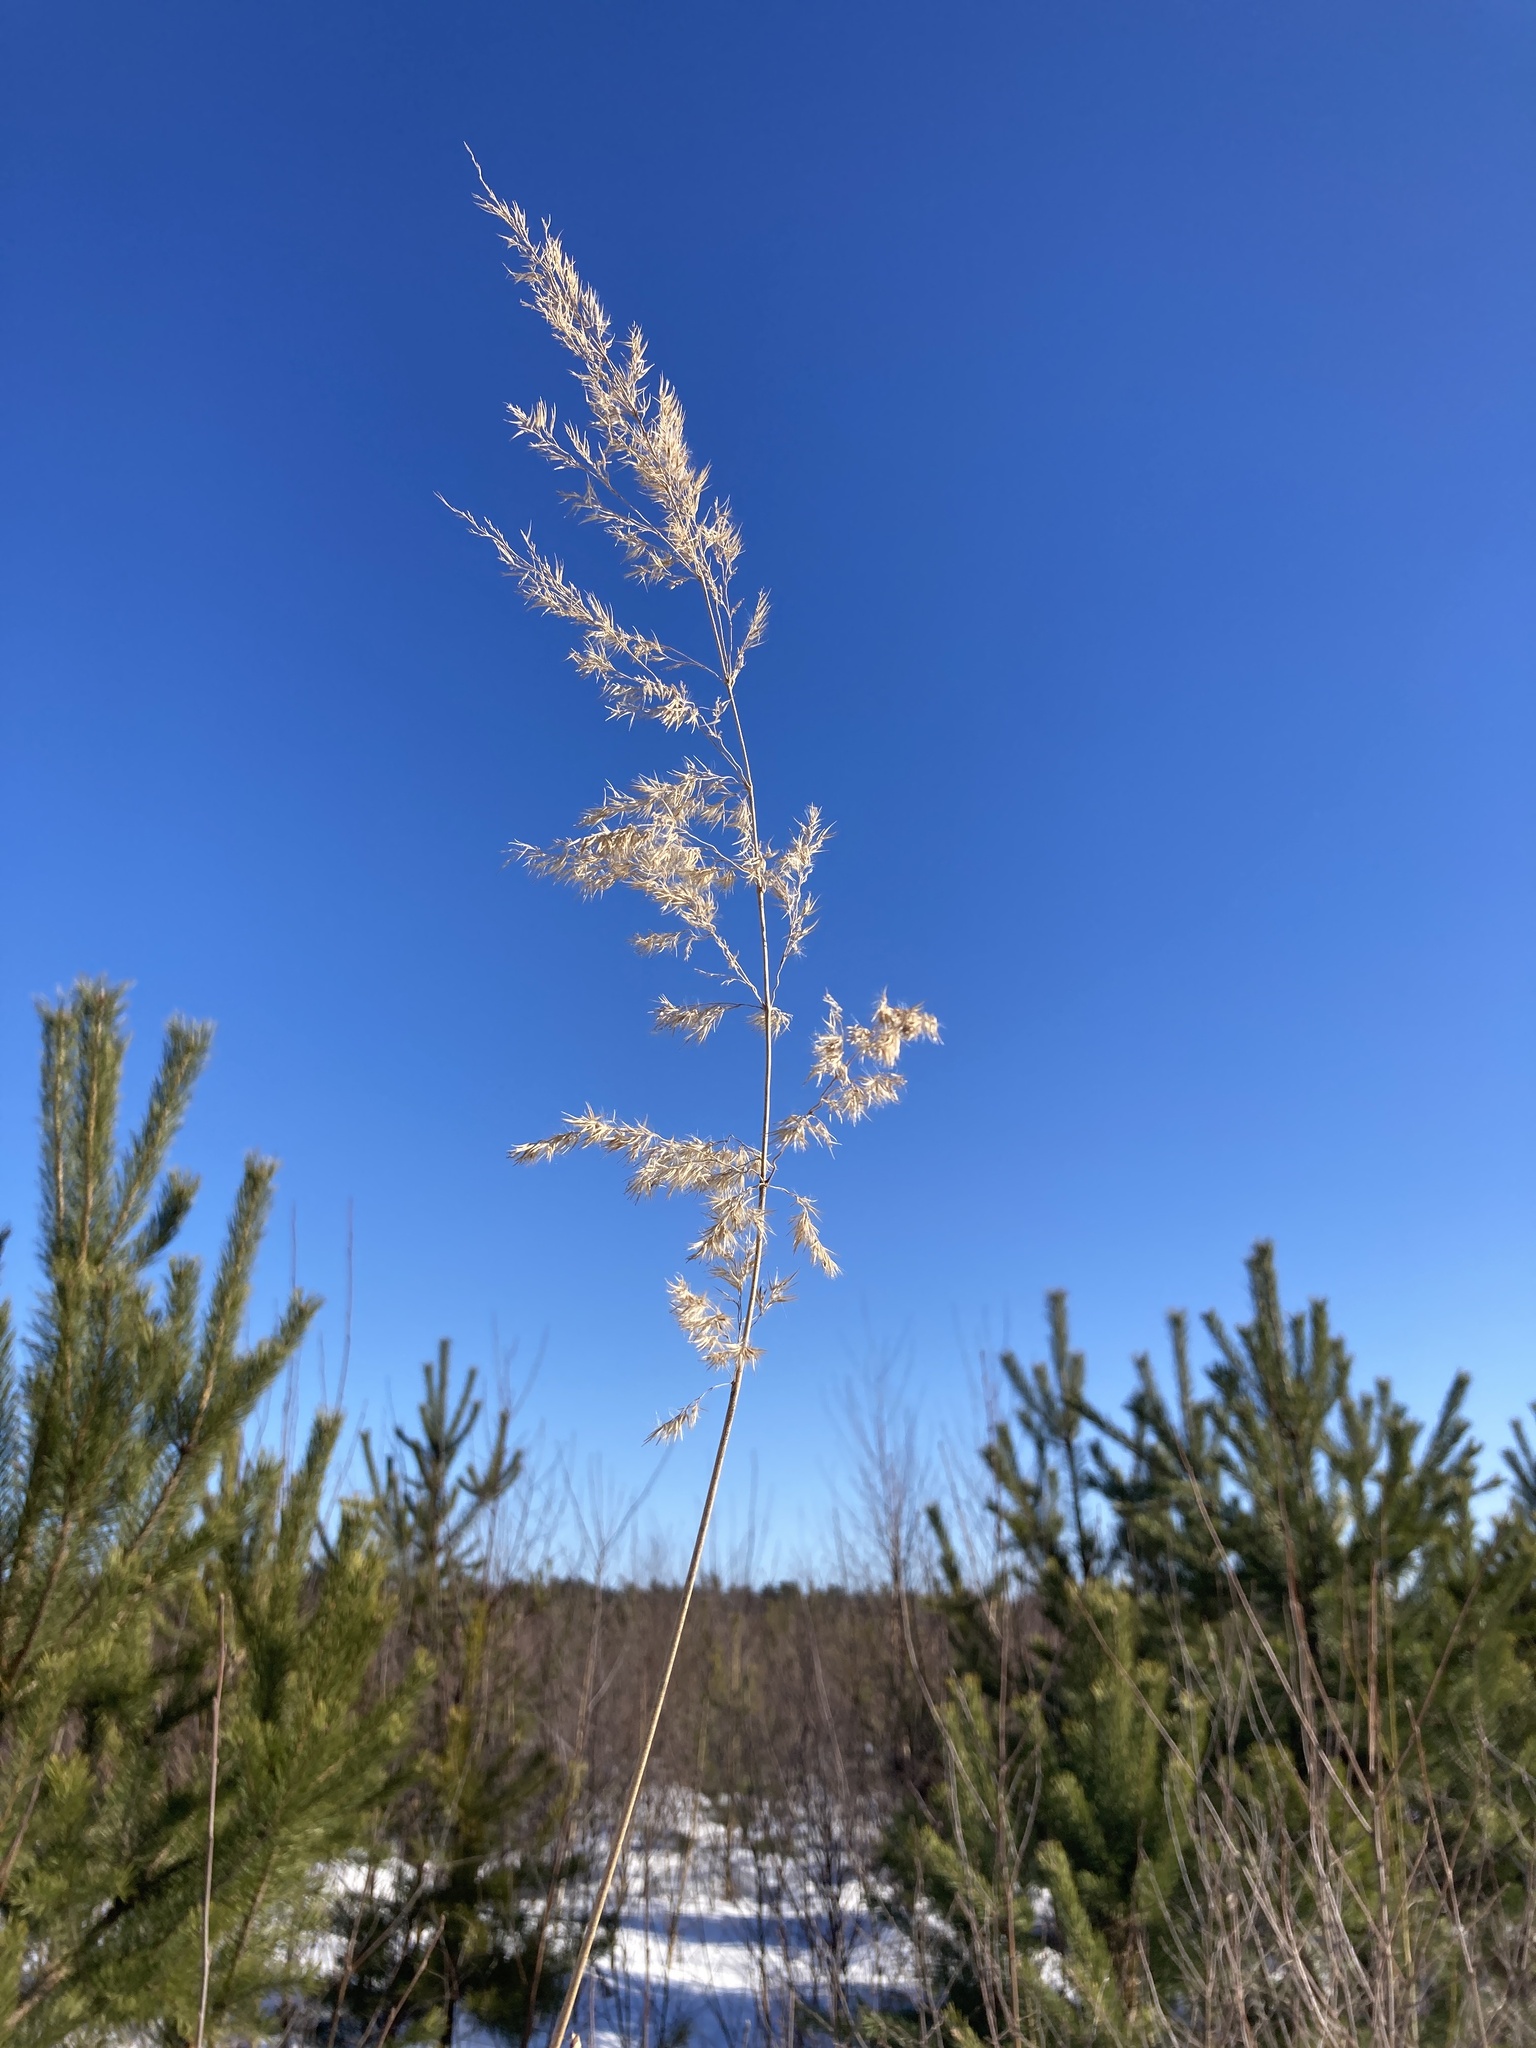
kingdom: Plantae
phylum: Tracheophyta
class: Liliopsida
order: Poales
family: Poaceae
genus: Calamagrostis
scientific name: Calamagrostis epigejos
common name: Wood small-reed
